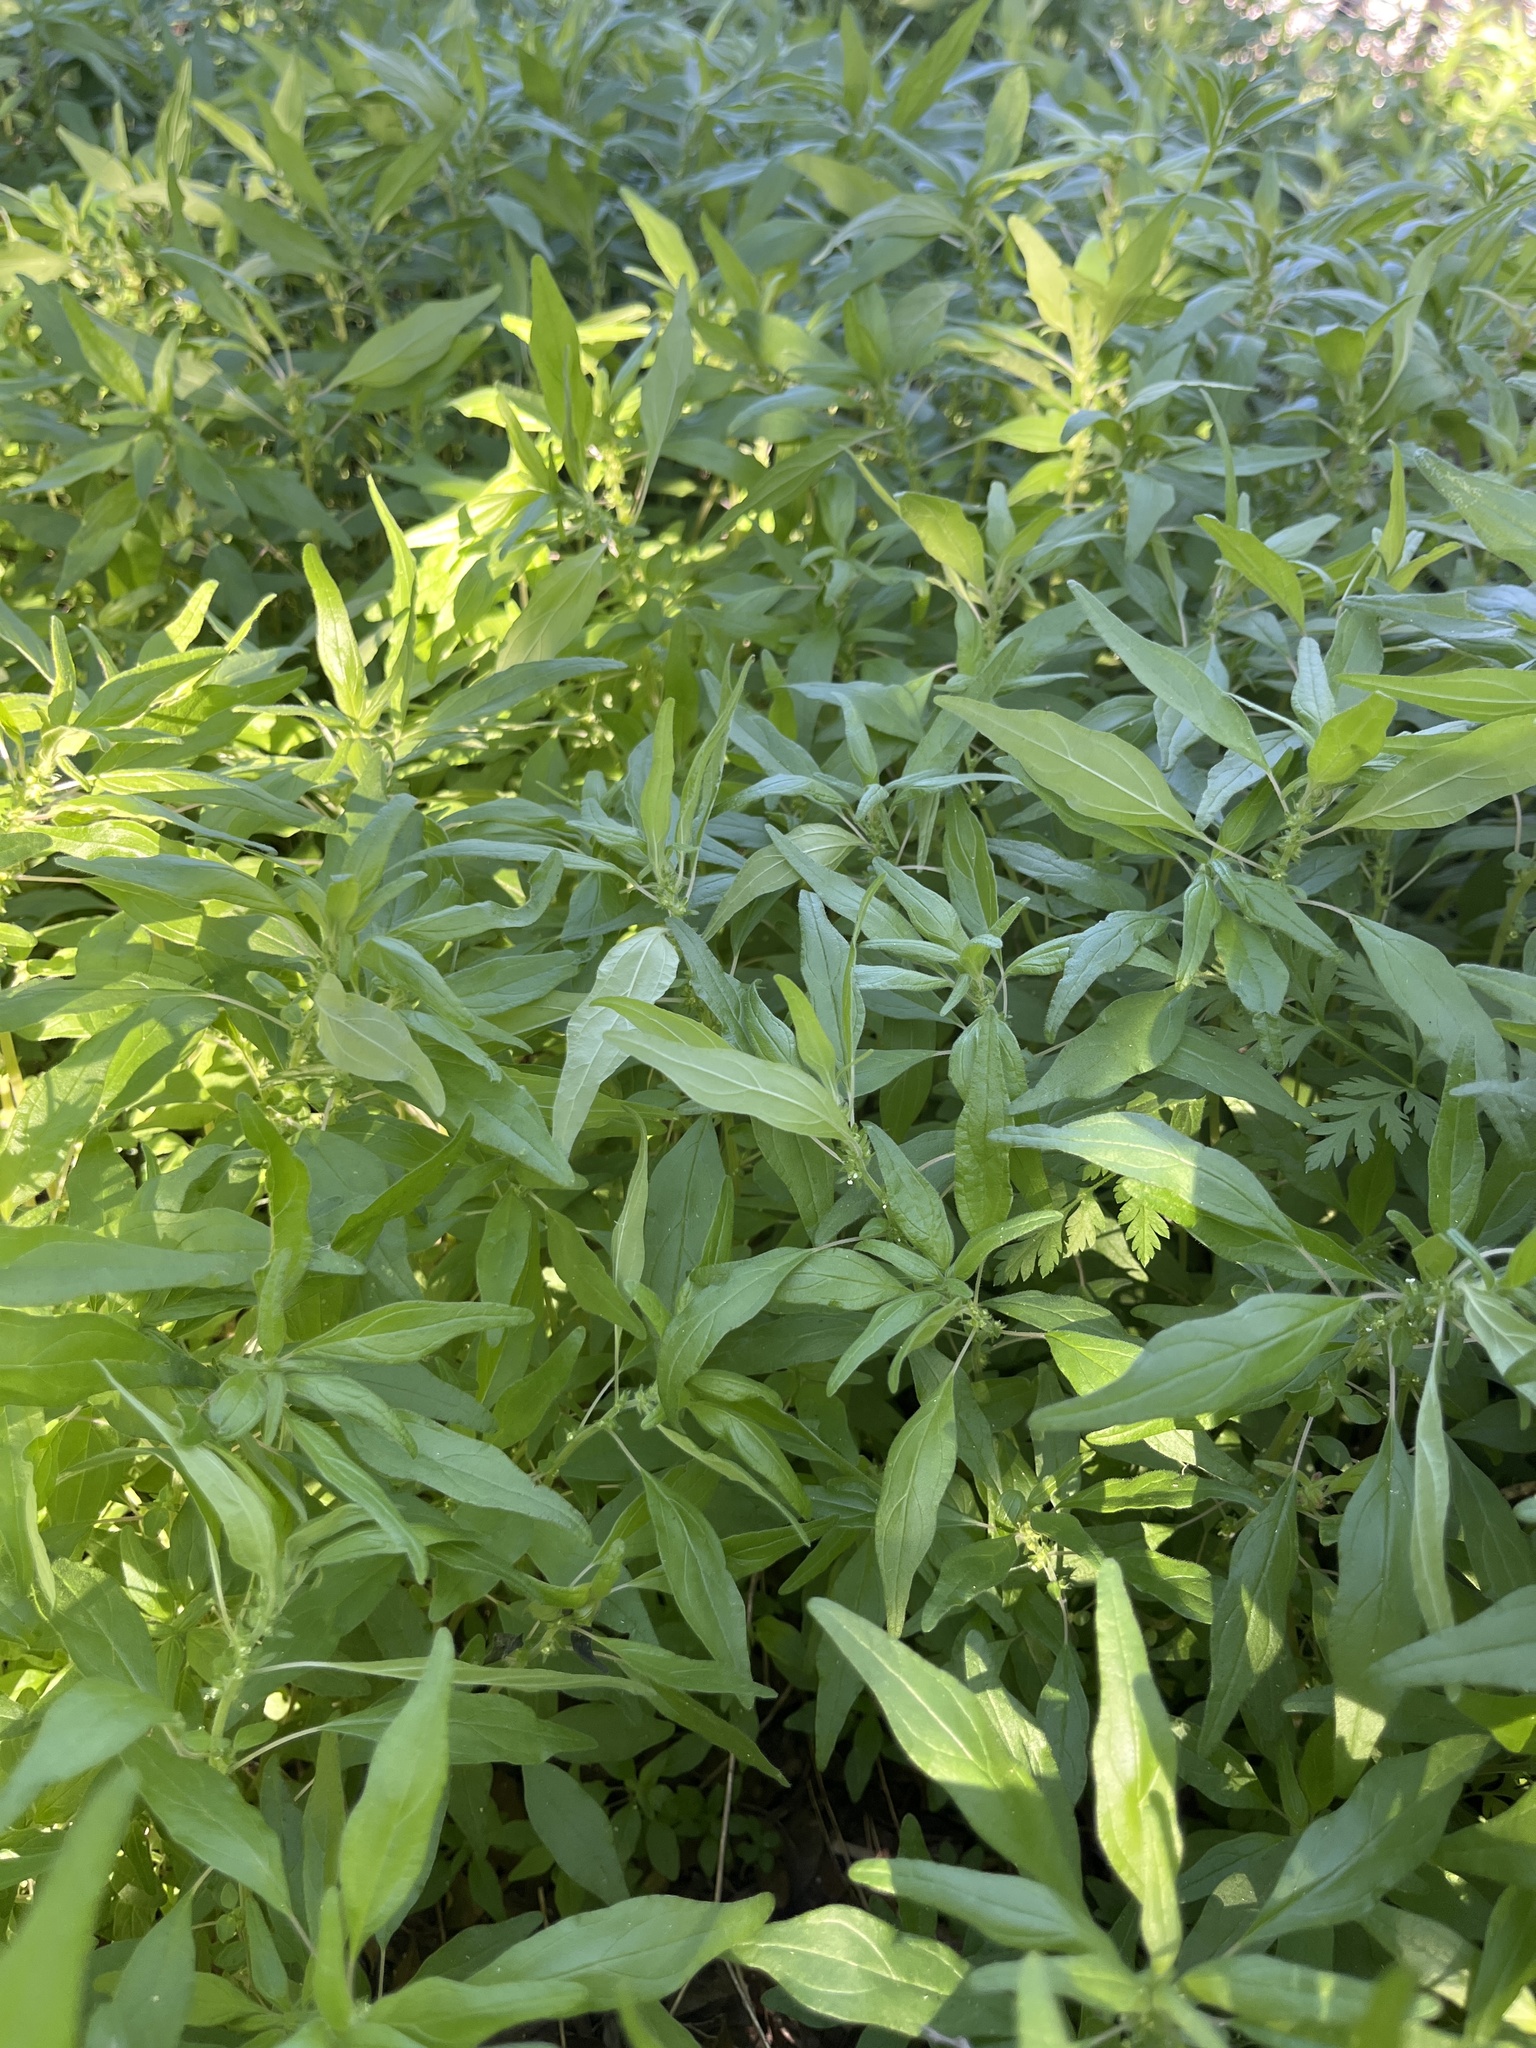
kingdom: Plantae
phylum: Tracheophyta
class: Magnoliopsida
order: Rosales
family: Urticaceae
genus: Parietaria
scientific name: Parietaria pensylvanica
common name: Pennsylvania pellitory
